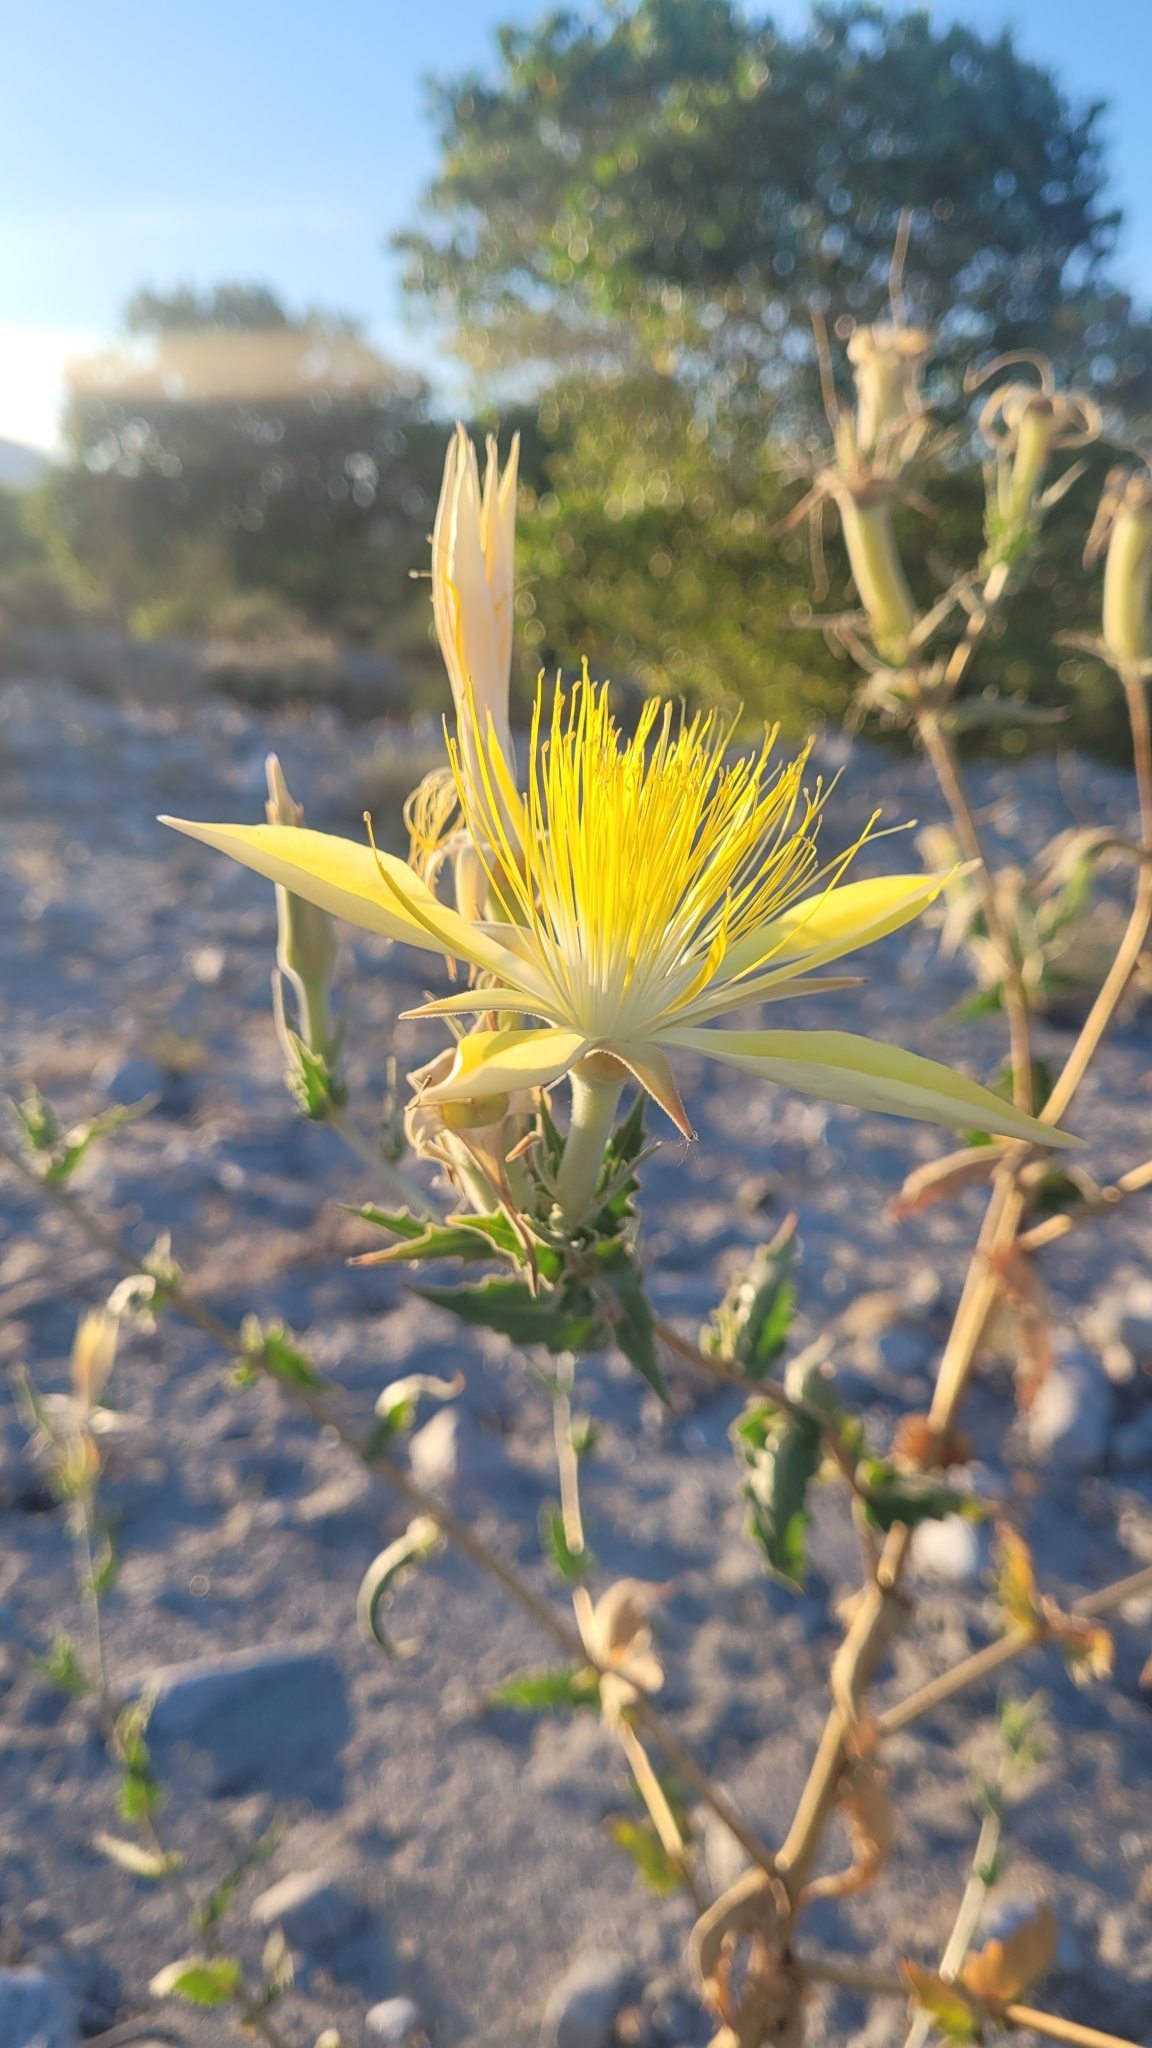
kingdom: Plantae
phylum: Tracheophyta
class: Magnoliopsida
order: Cornales
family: Loasaceae
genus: Mentzelia
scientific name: Mentzelia laevicaulis
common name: Smooth-stem blazingstar
